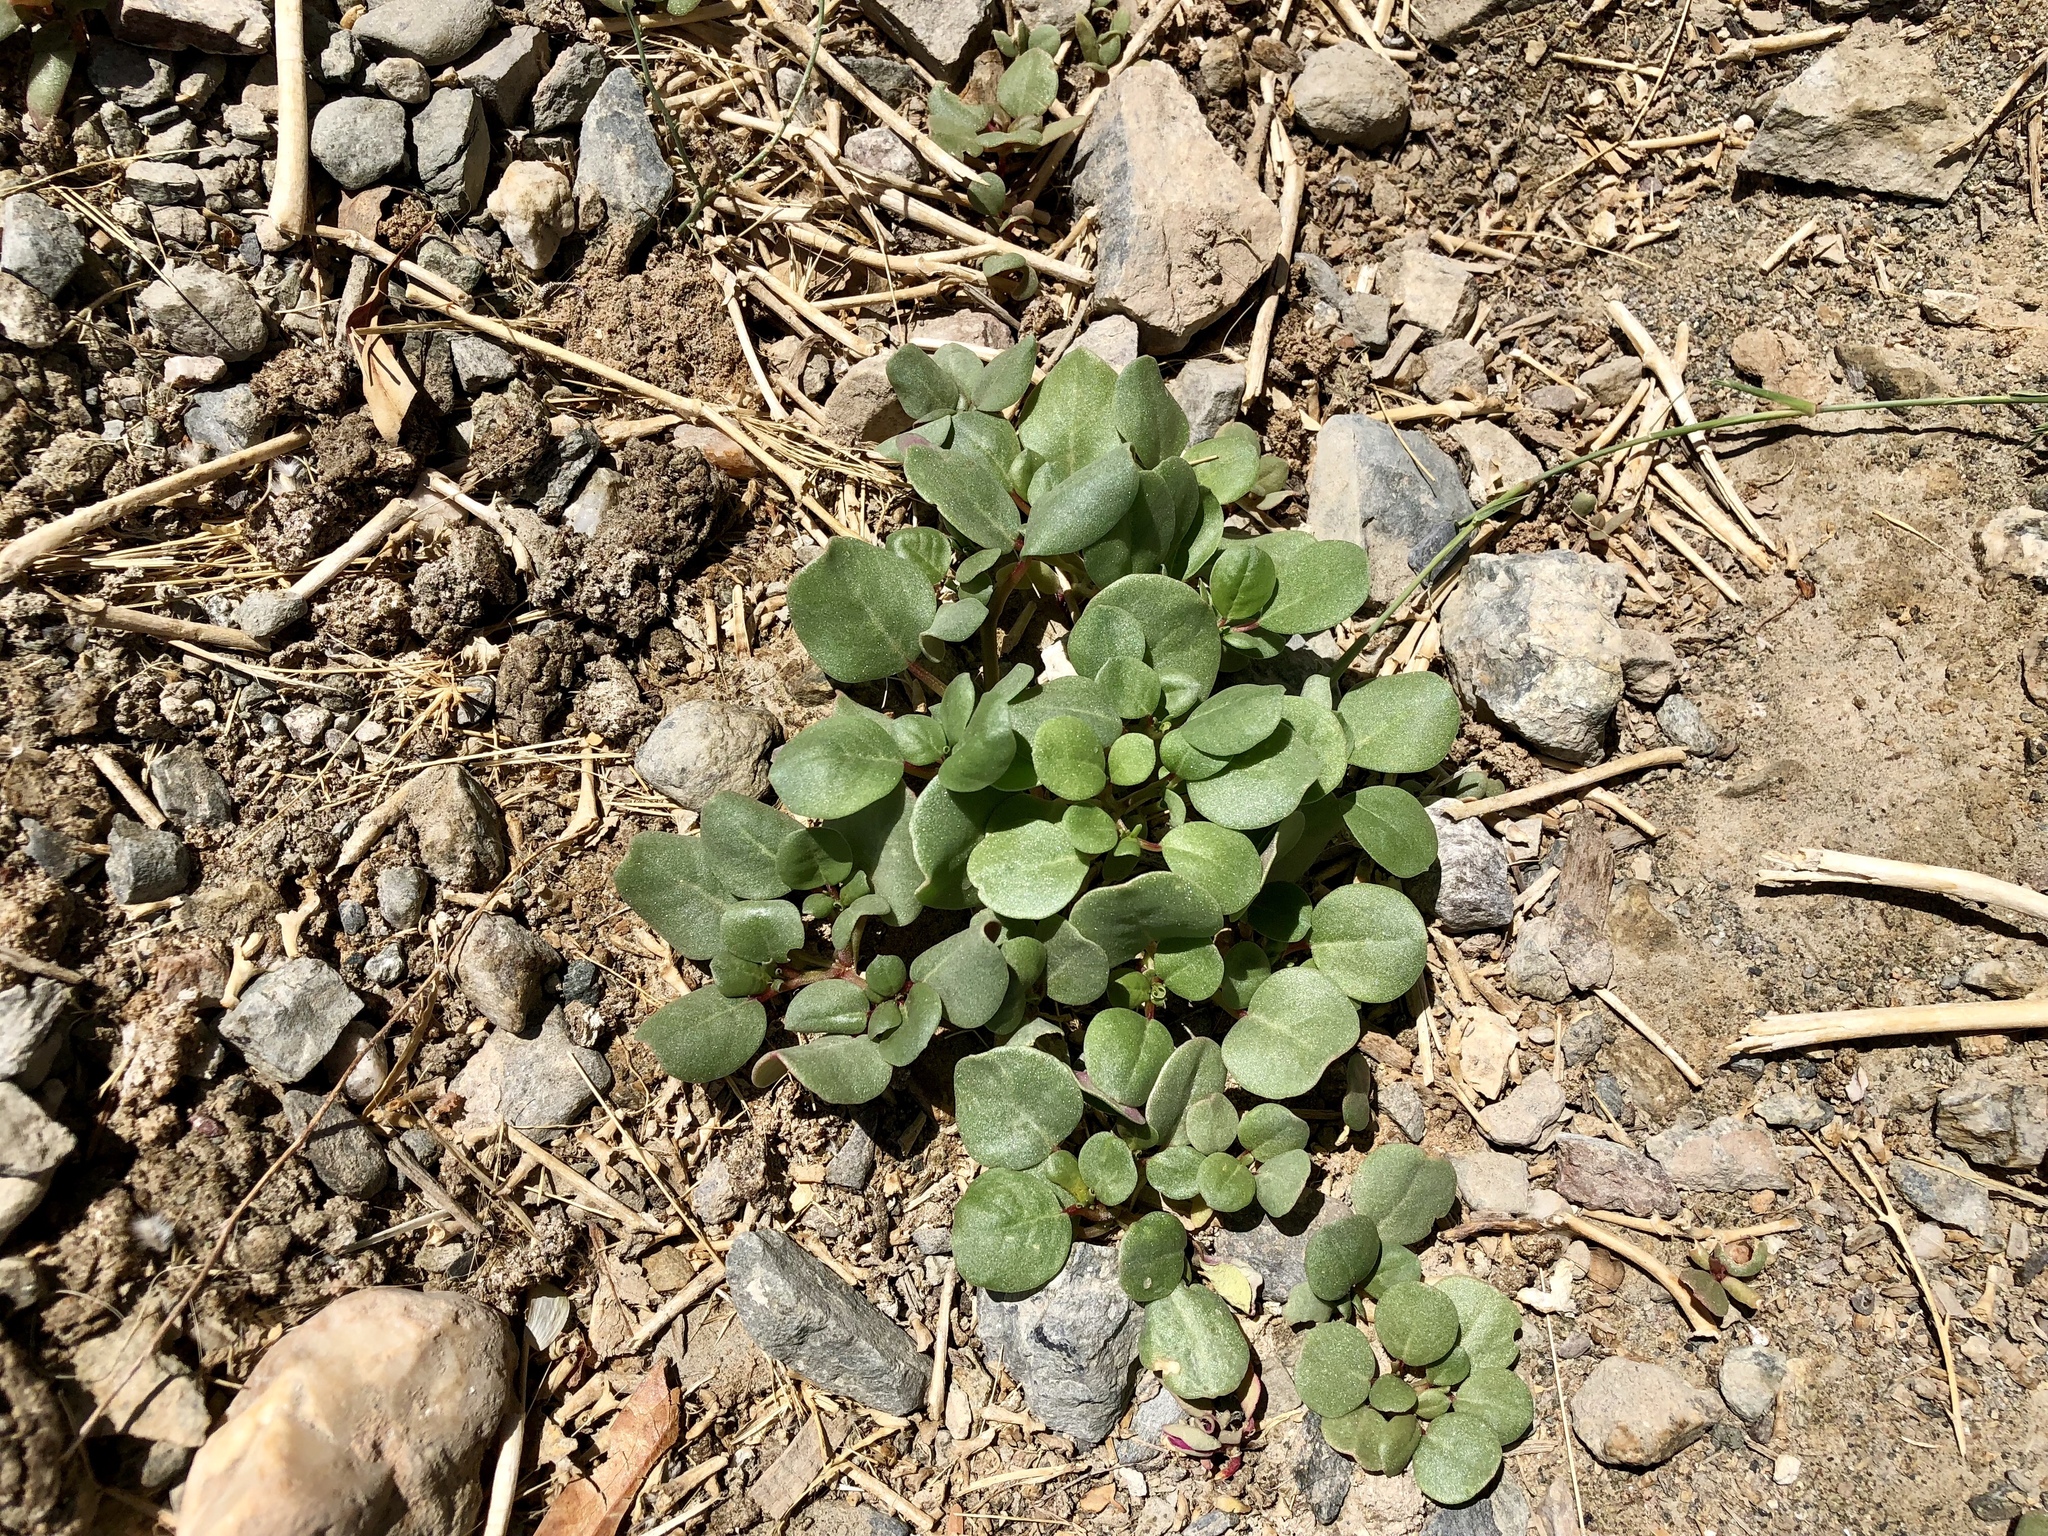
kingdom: Plantae
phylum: Tracheophyta
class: Magnoliopsida
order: Caryophyllales
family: Aizoaceae
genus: Trianthema
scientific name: Trianthema portulacastrum
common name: Desert horsepurslane
